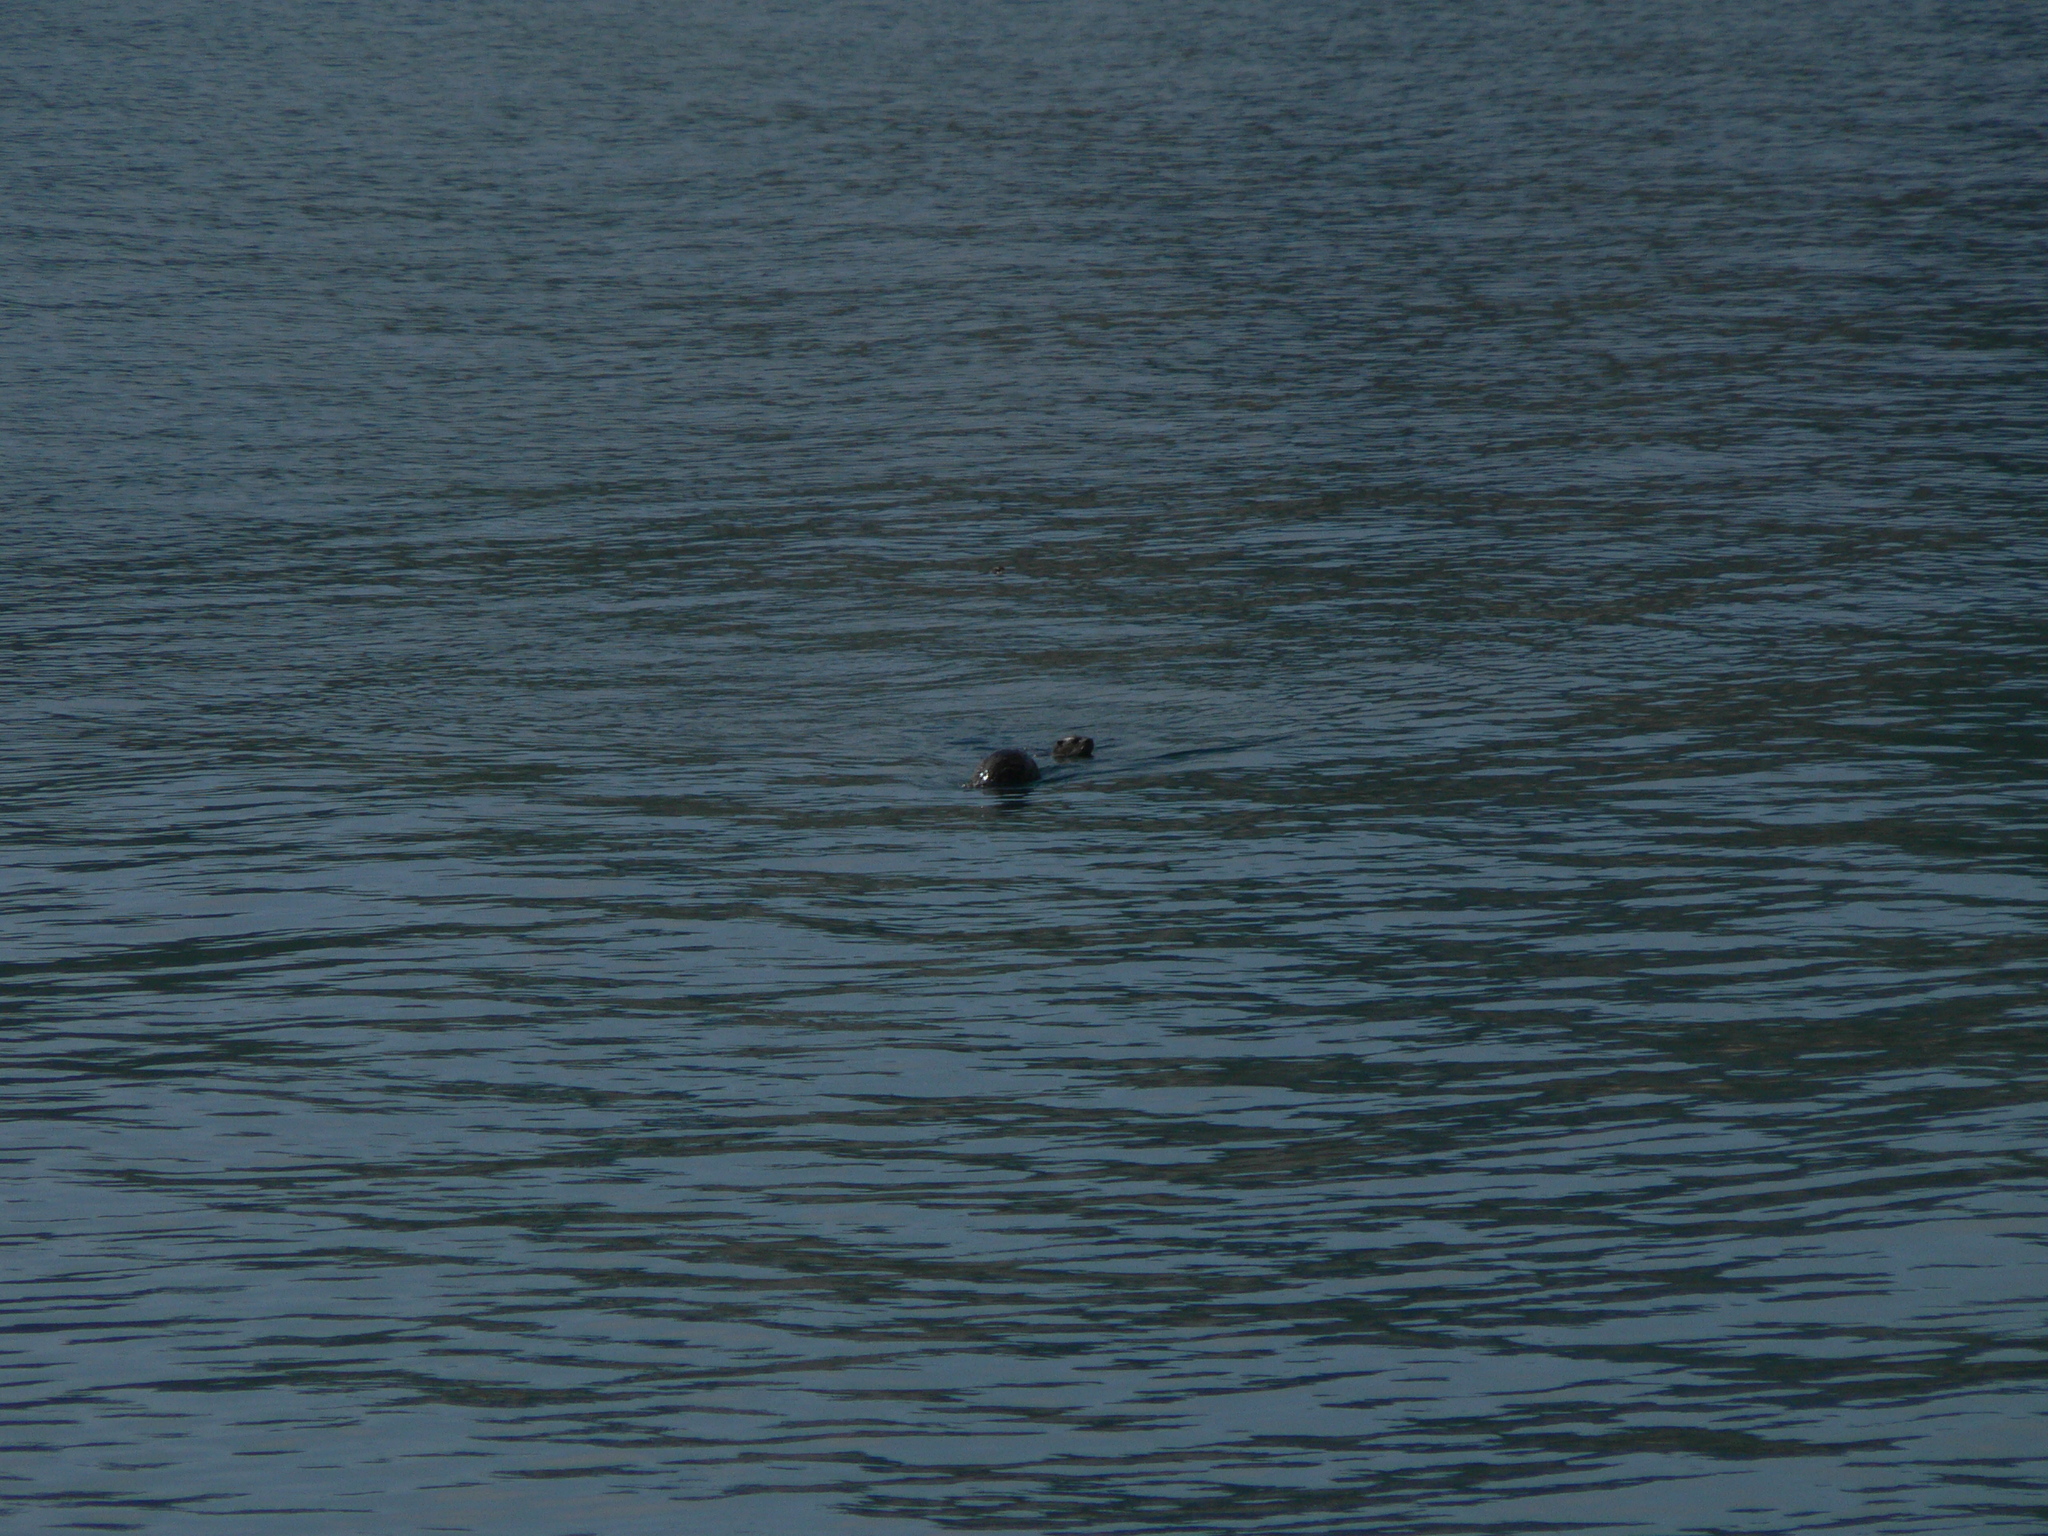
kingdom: Animalia
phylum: Chordata
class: Mammalia
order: Carnivora
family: Mustelidae
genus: Lontra
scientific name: Lontra canadensis
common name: North american river otter
